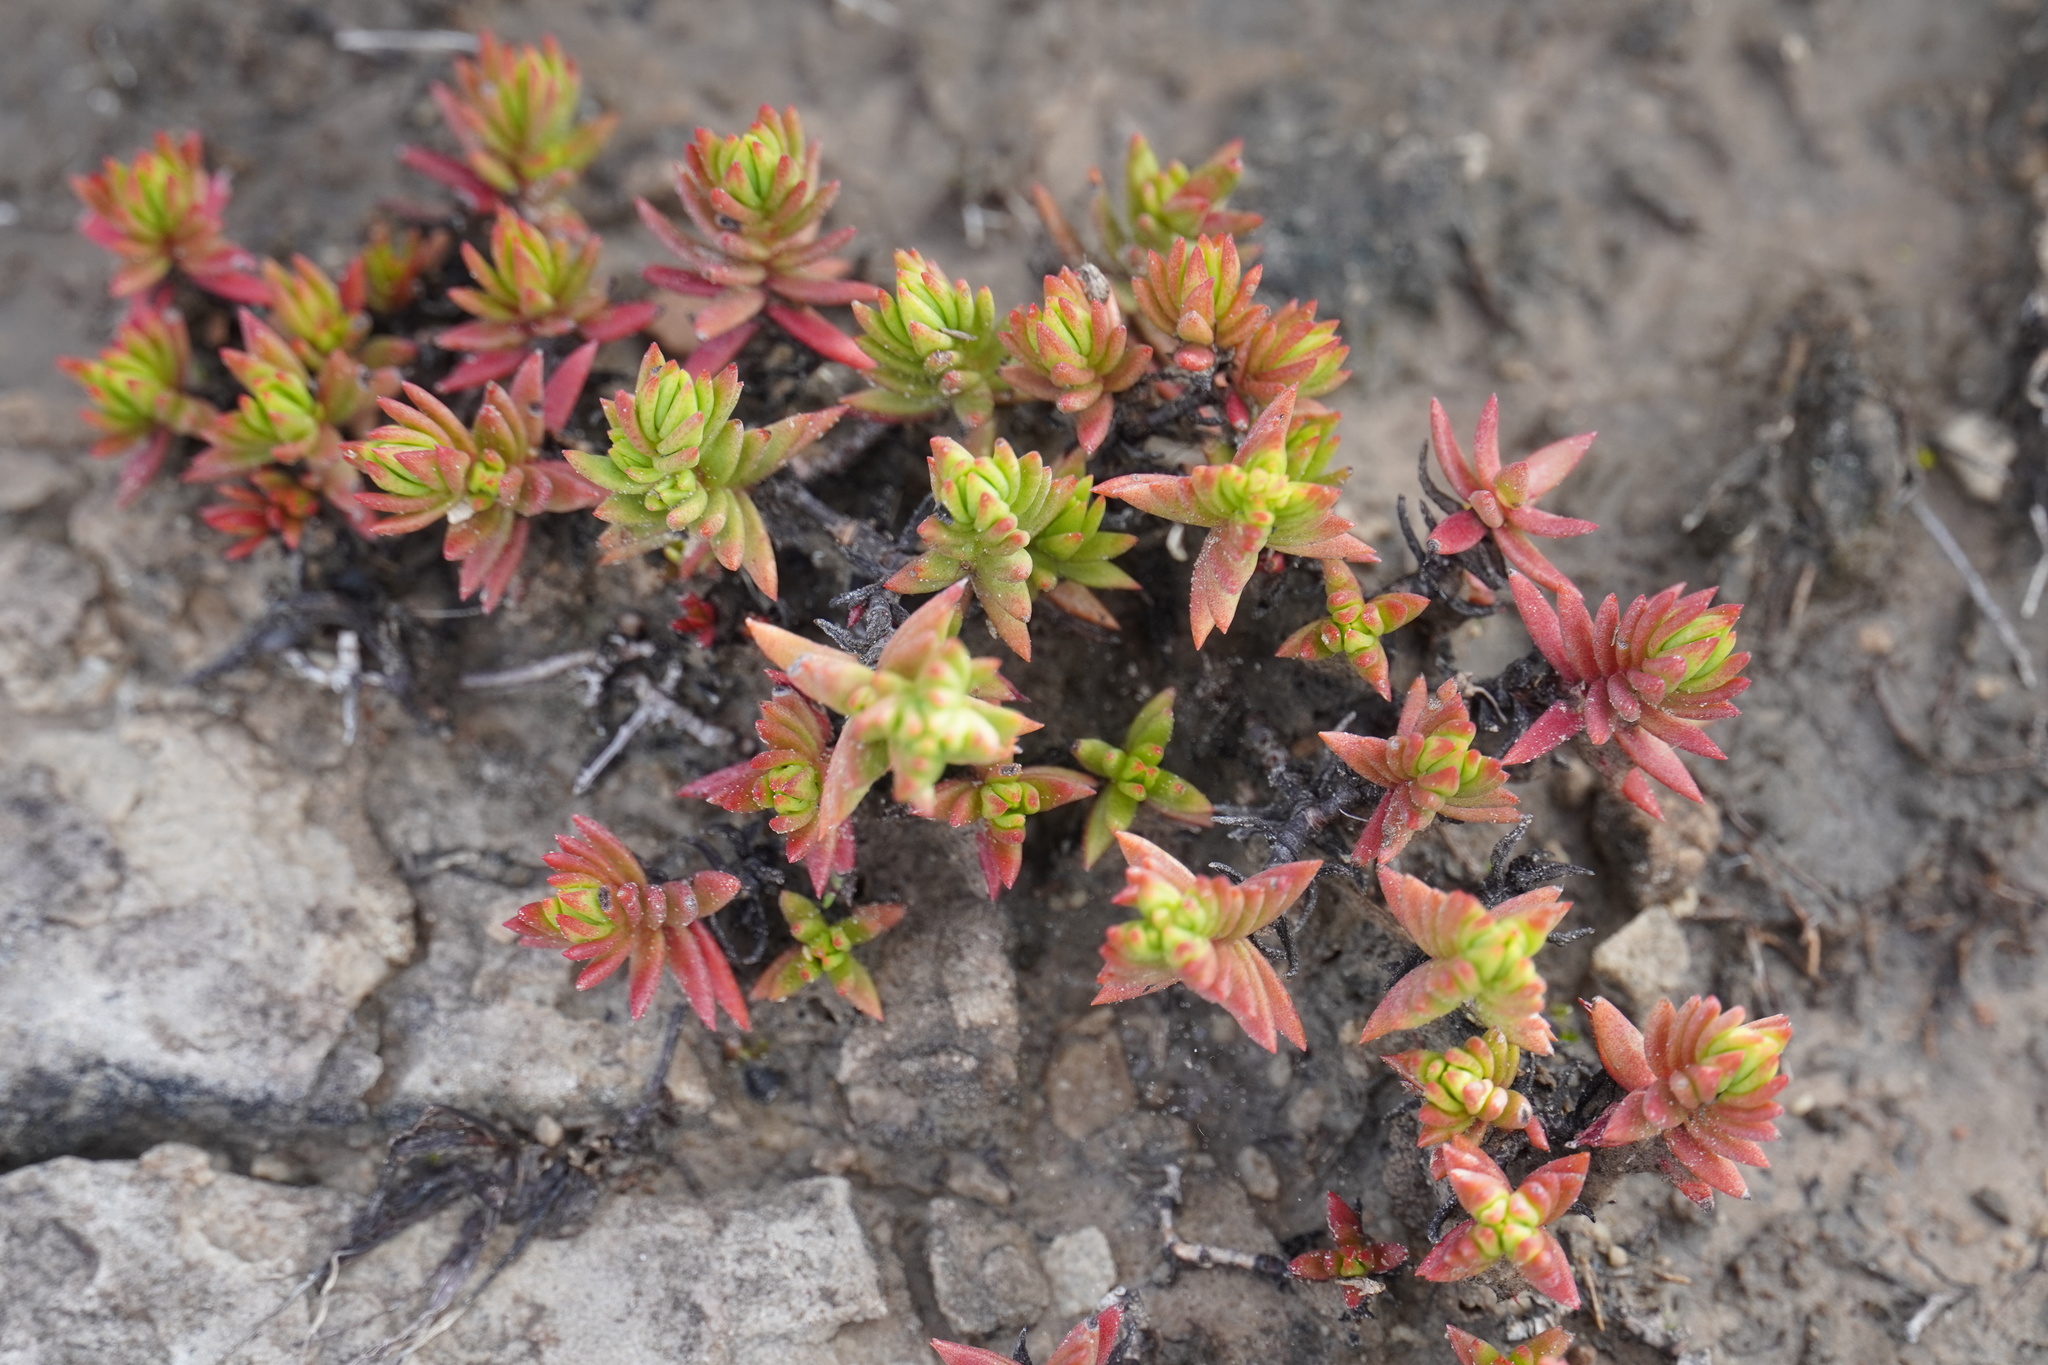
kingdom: Plantae
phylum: Tracheophyta
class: Magnoliopsida
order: Saxifragales
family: Crassulaceae
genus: Crassula
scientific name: Crassula dependens
